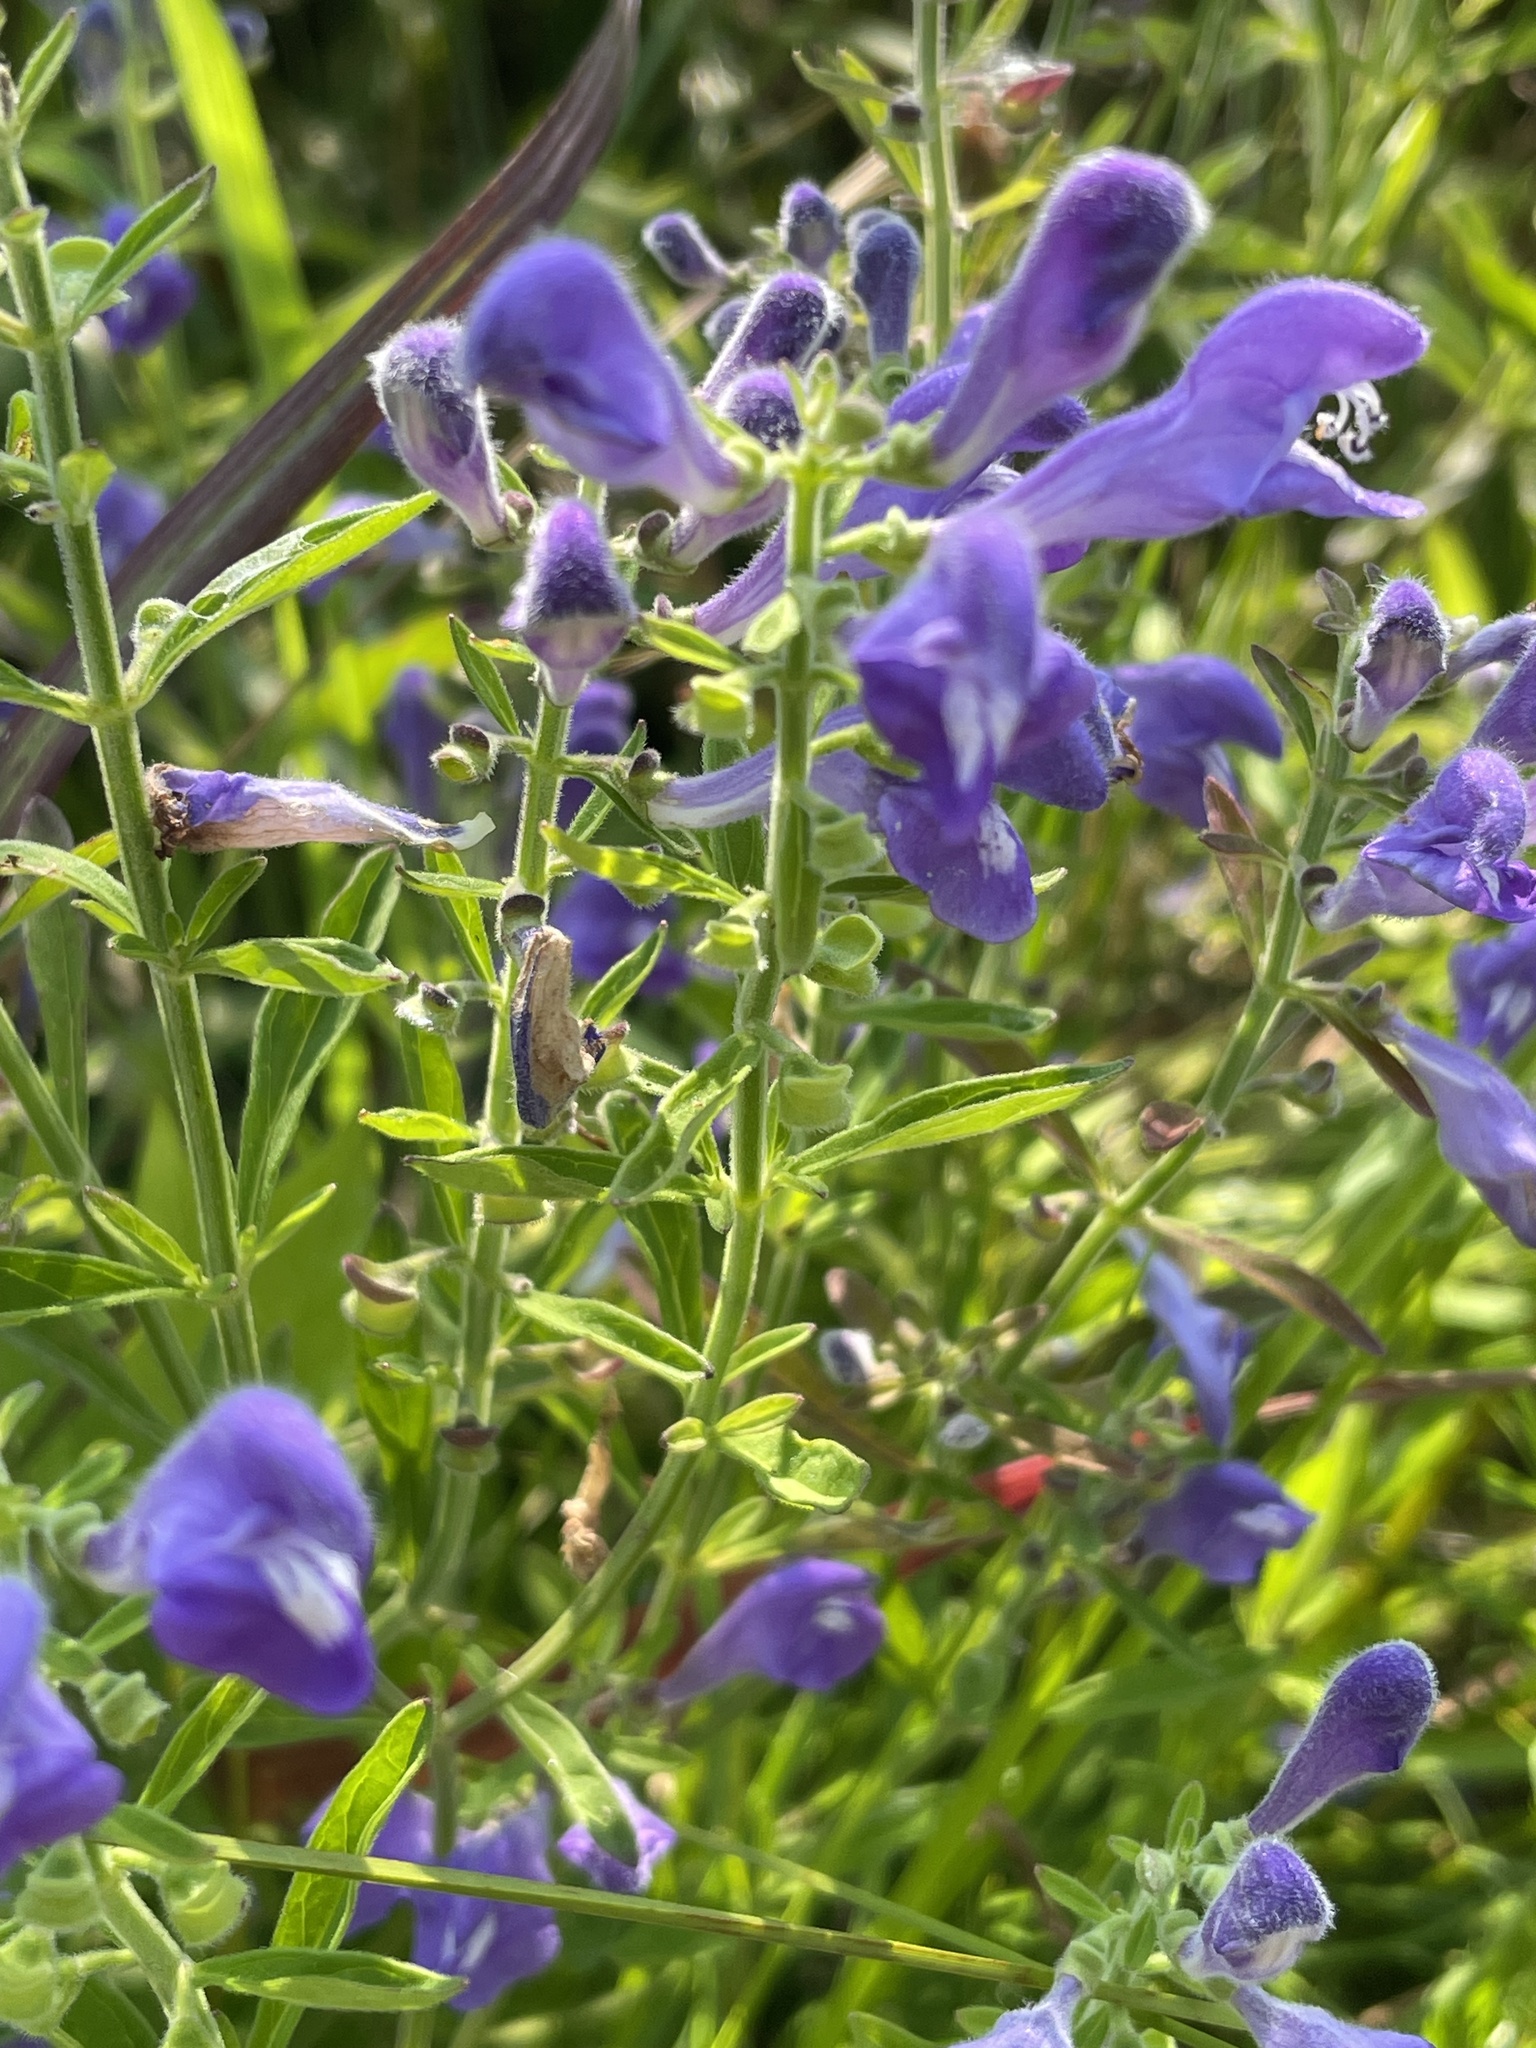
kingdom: Plantae
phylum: Tracheophyta
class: Magnoliopsida
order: Lamiales
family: Lamiaceae
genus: Scutellaria
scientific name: Scutellaria integrifolia
